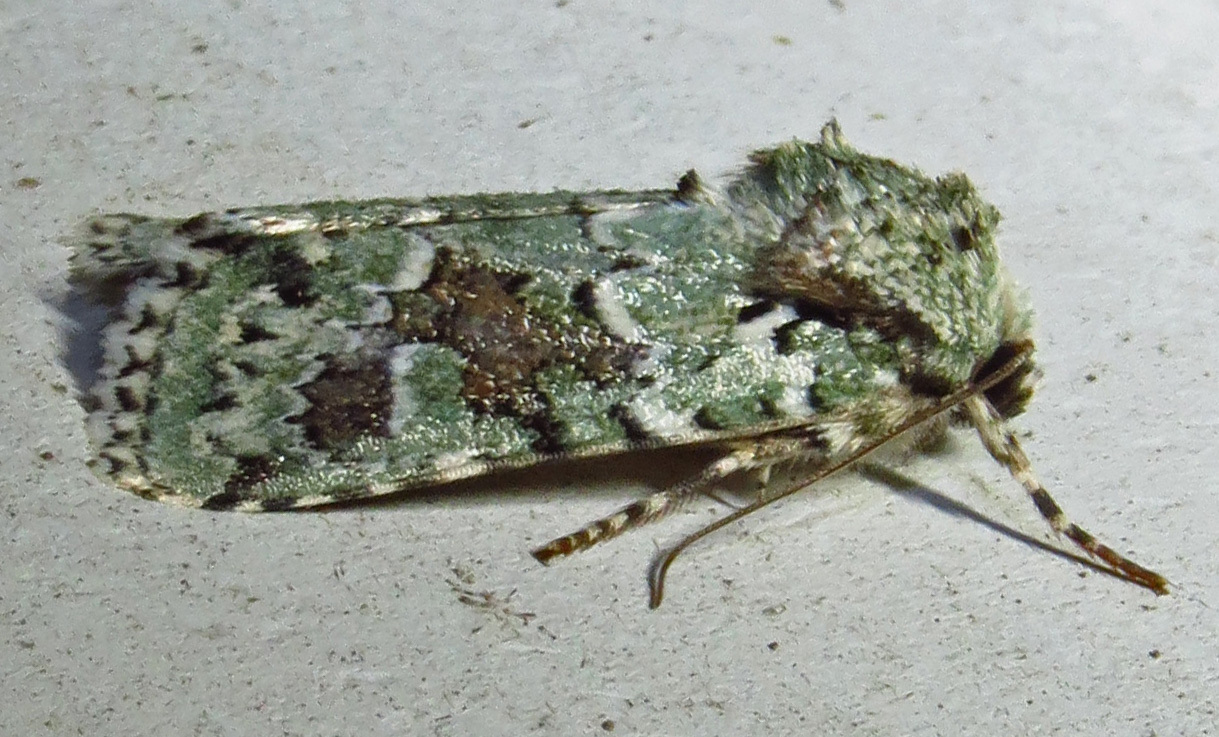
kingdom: Animalia
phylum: Arthropoda
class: Insecta
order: Lepidoptera
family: Noctuidae
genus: Lacinipolia
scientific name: Lacinipolia laudabilis
